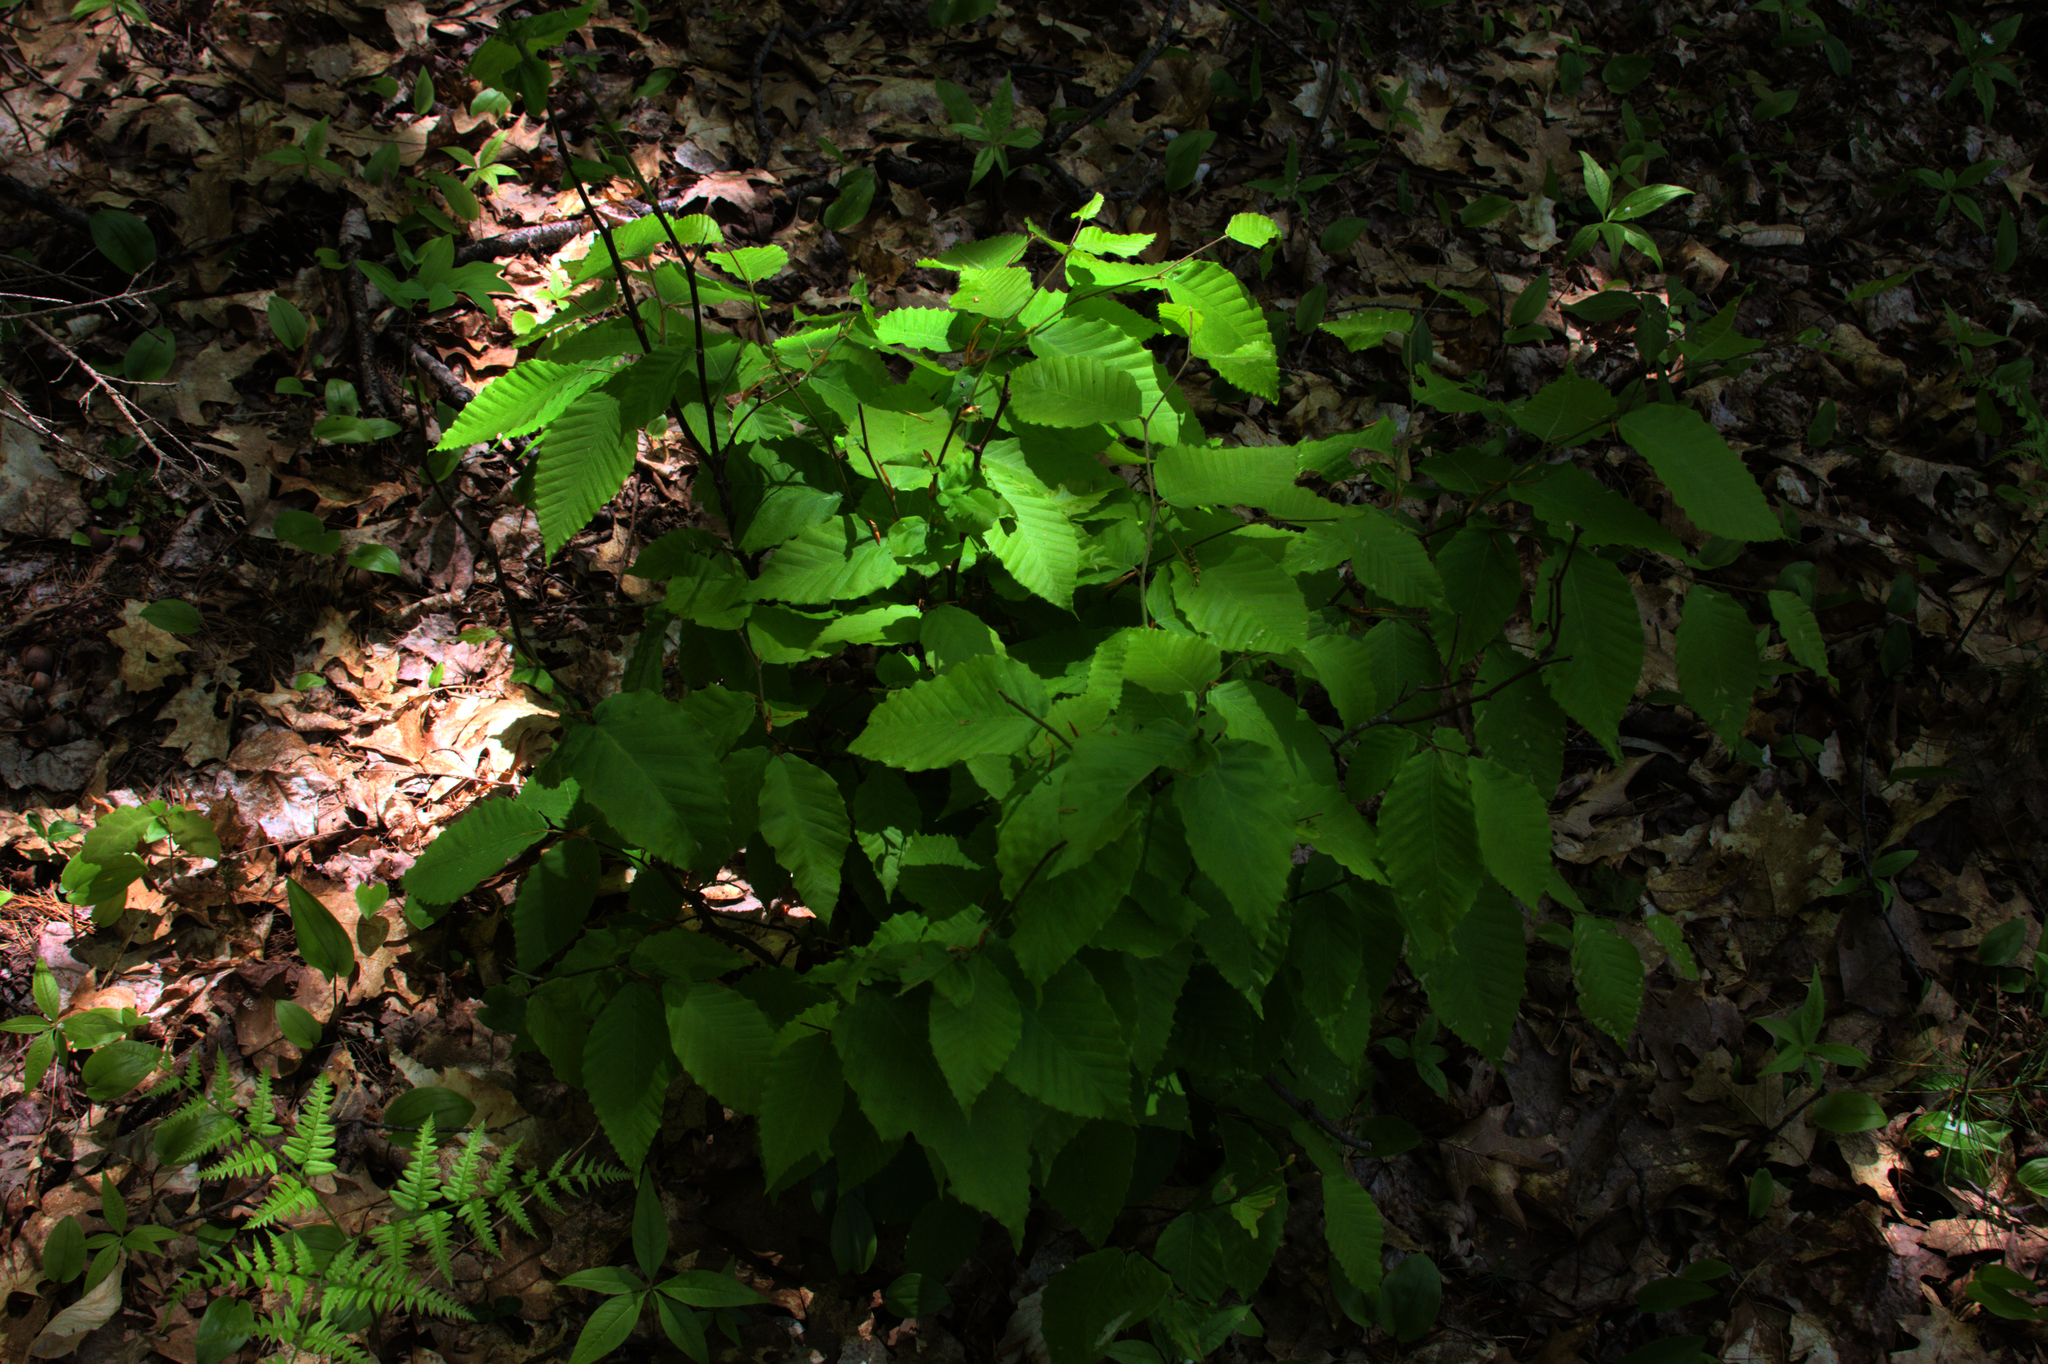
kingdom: Plantae
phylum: Tracheophyta
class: Liliopsida
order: Asparagales
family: Asparagaceae
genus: Maianthemum
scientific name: Maianthemum canadense
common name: False lily-of-the-valley
